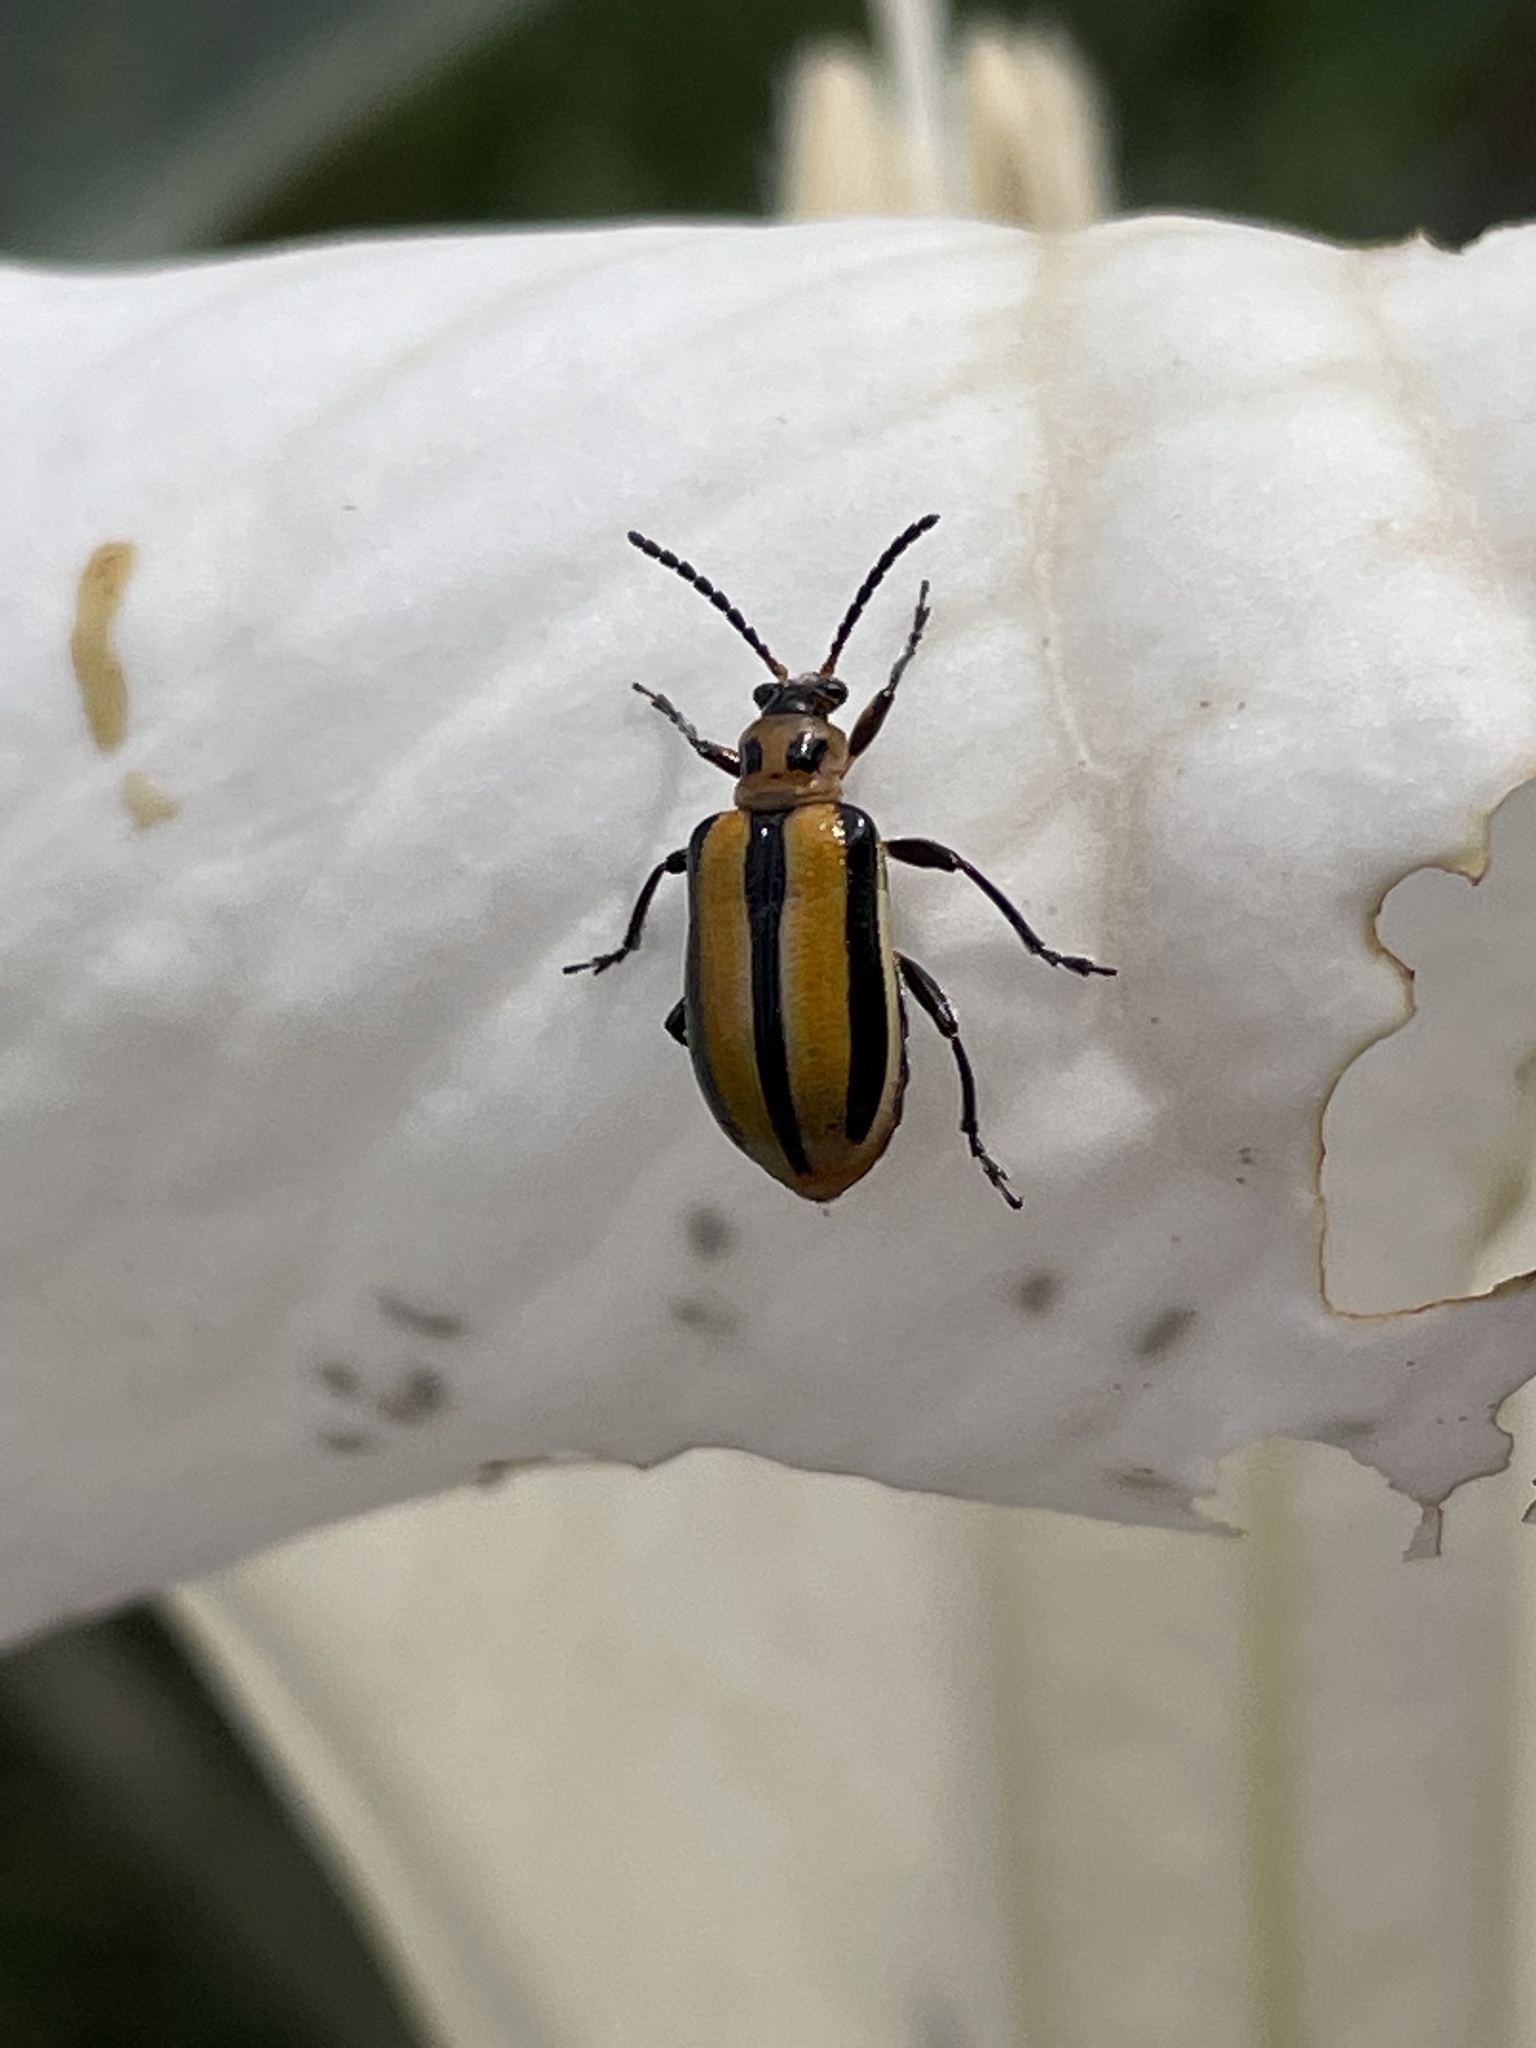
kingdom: Animalia
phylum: Arthropoda
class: Insecta
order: Coleoptera
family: Chrysomelidae
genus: Lema
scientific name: Lema daturaphila
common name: Leaf beetle
